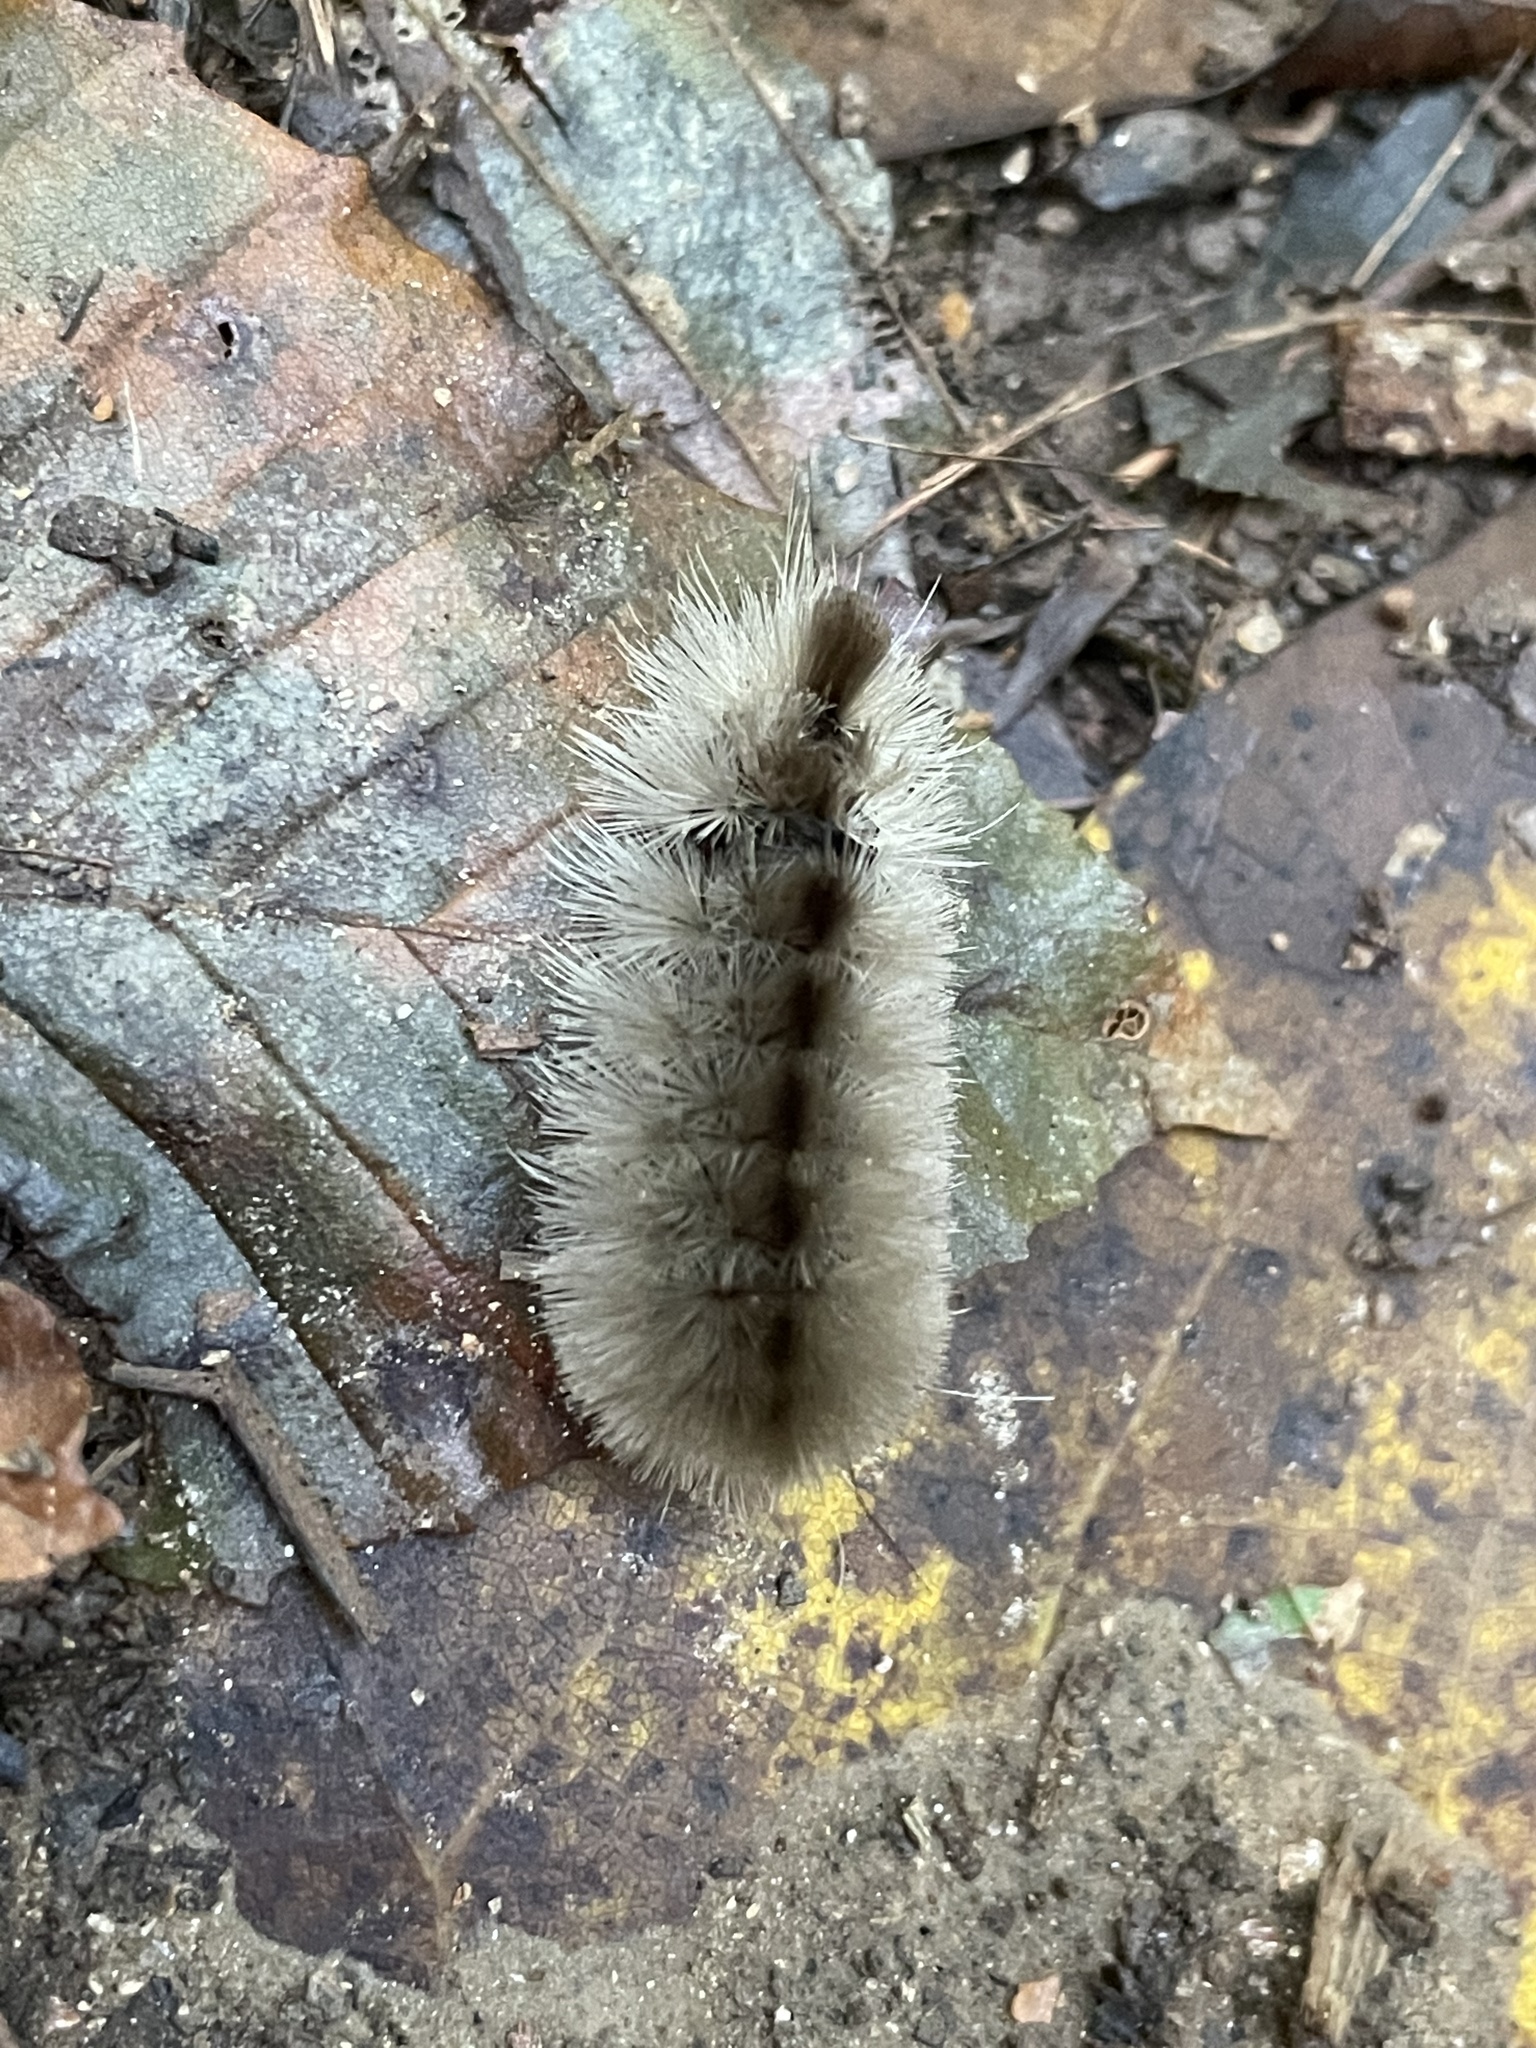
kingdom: Animalia
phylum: Arthropoda
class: Insecta
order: Lepidoptera
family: Erebidae
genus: Halysidota
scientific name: Halysidota tessellaris
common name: Banded tussock moth
